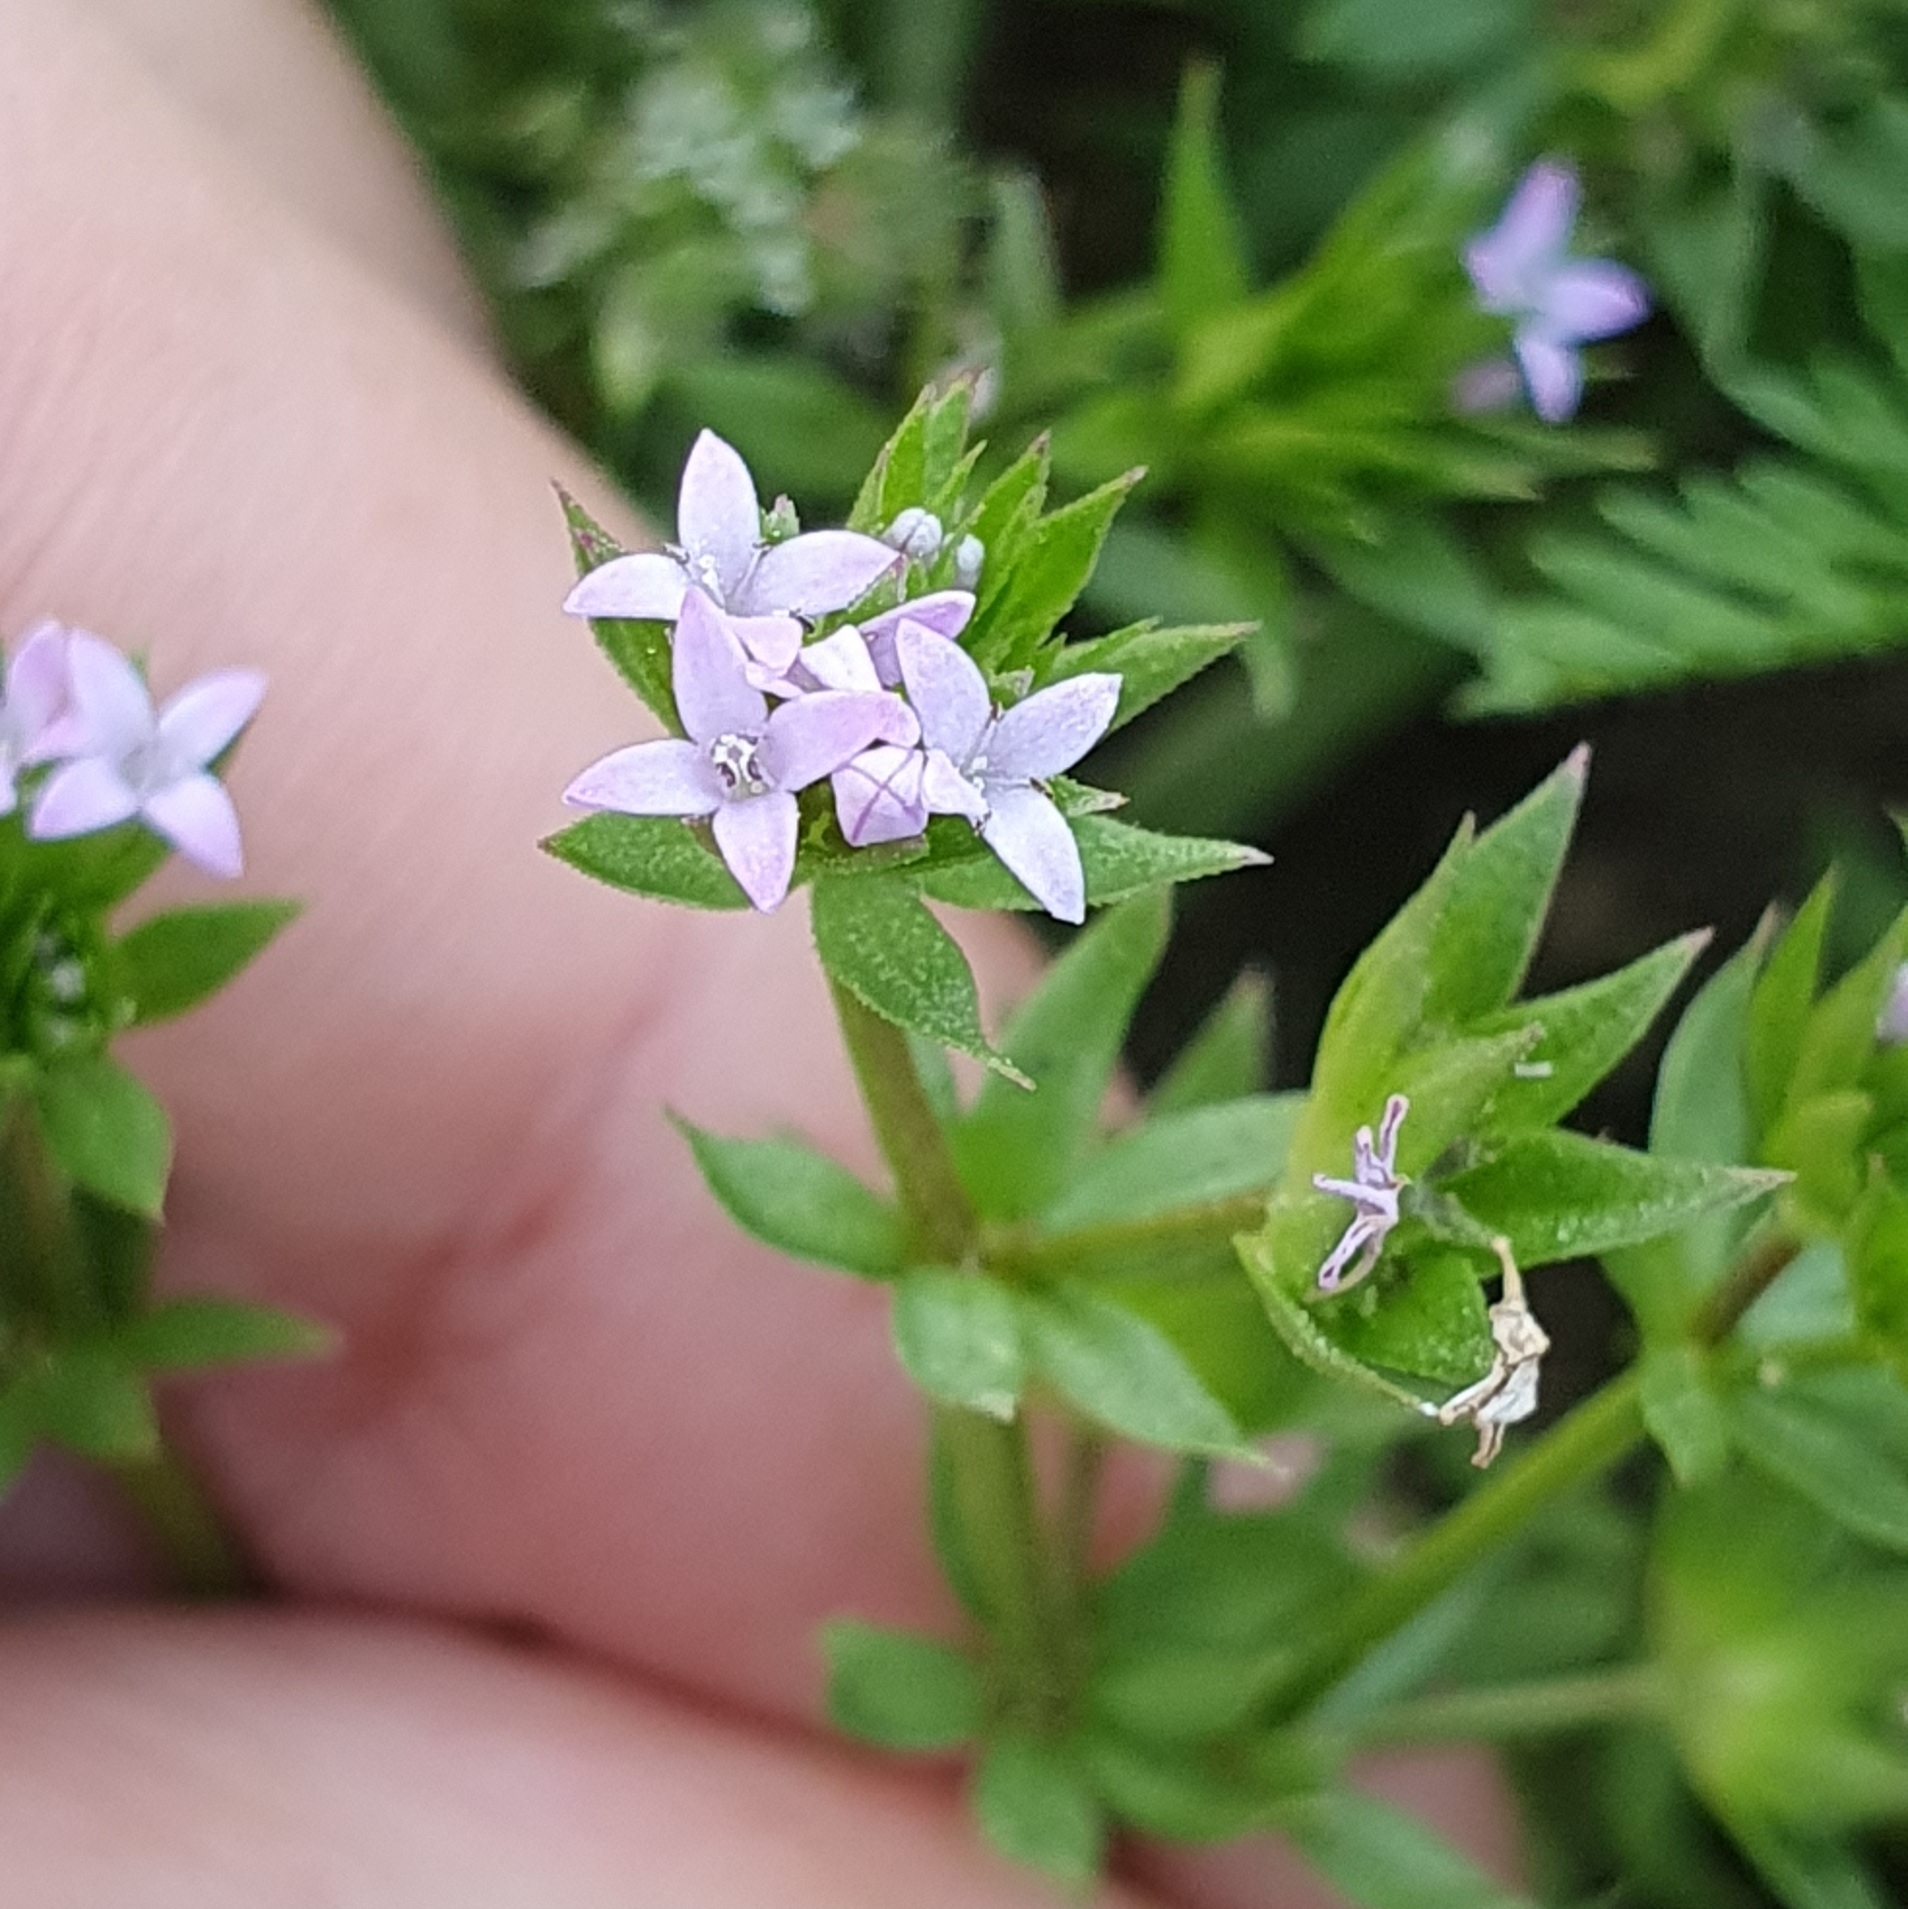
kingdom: Plantae
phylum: Tracheophyta
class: Magnoliopsida
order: Gentianales
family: Rubiaceae
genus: Sherardia
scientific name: Sherardia arvensis
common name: Field madder
